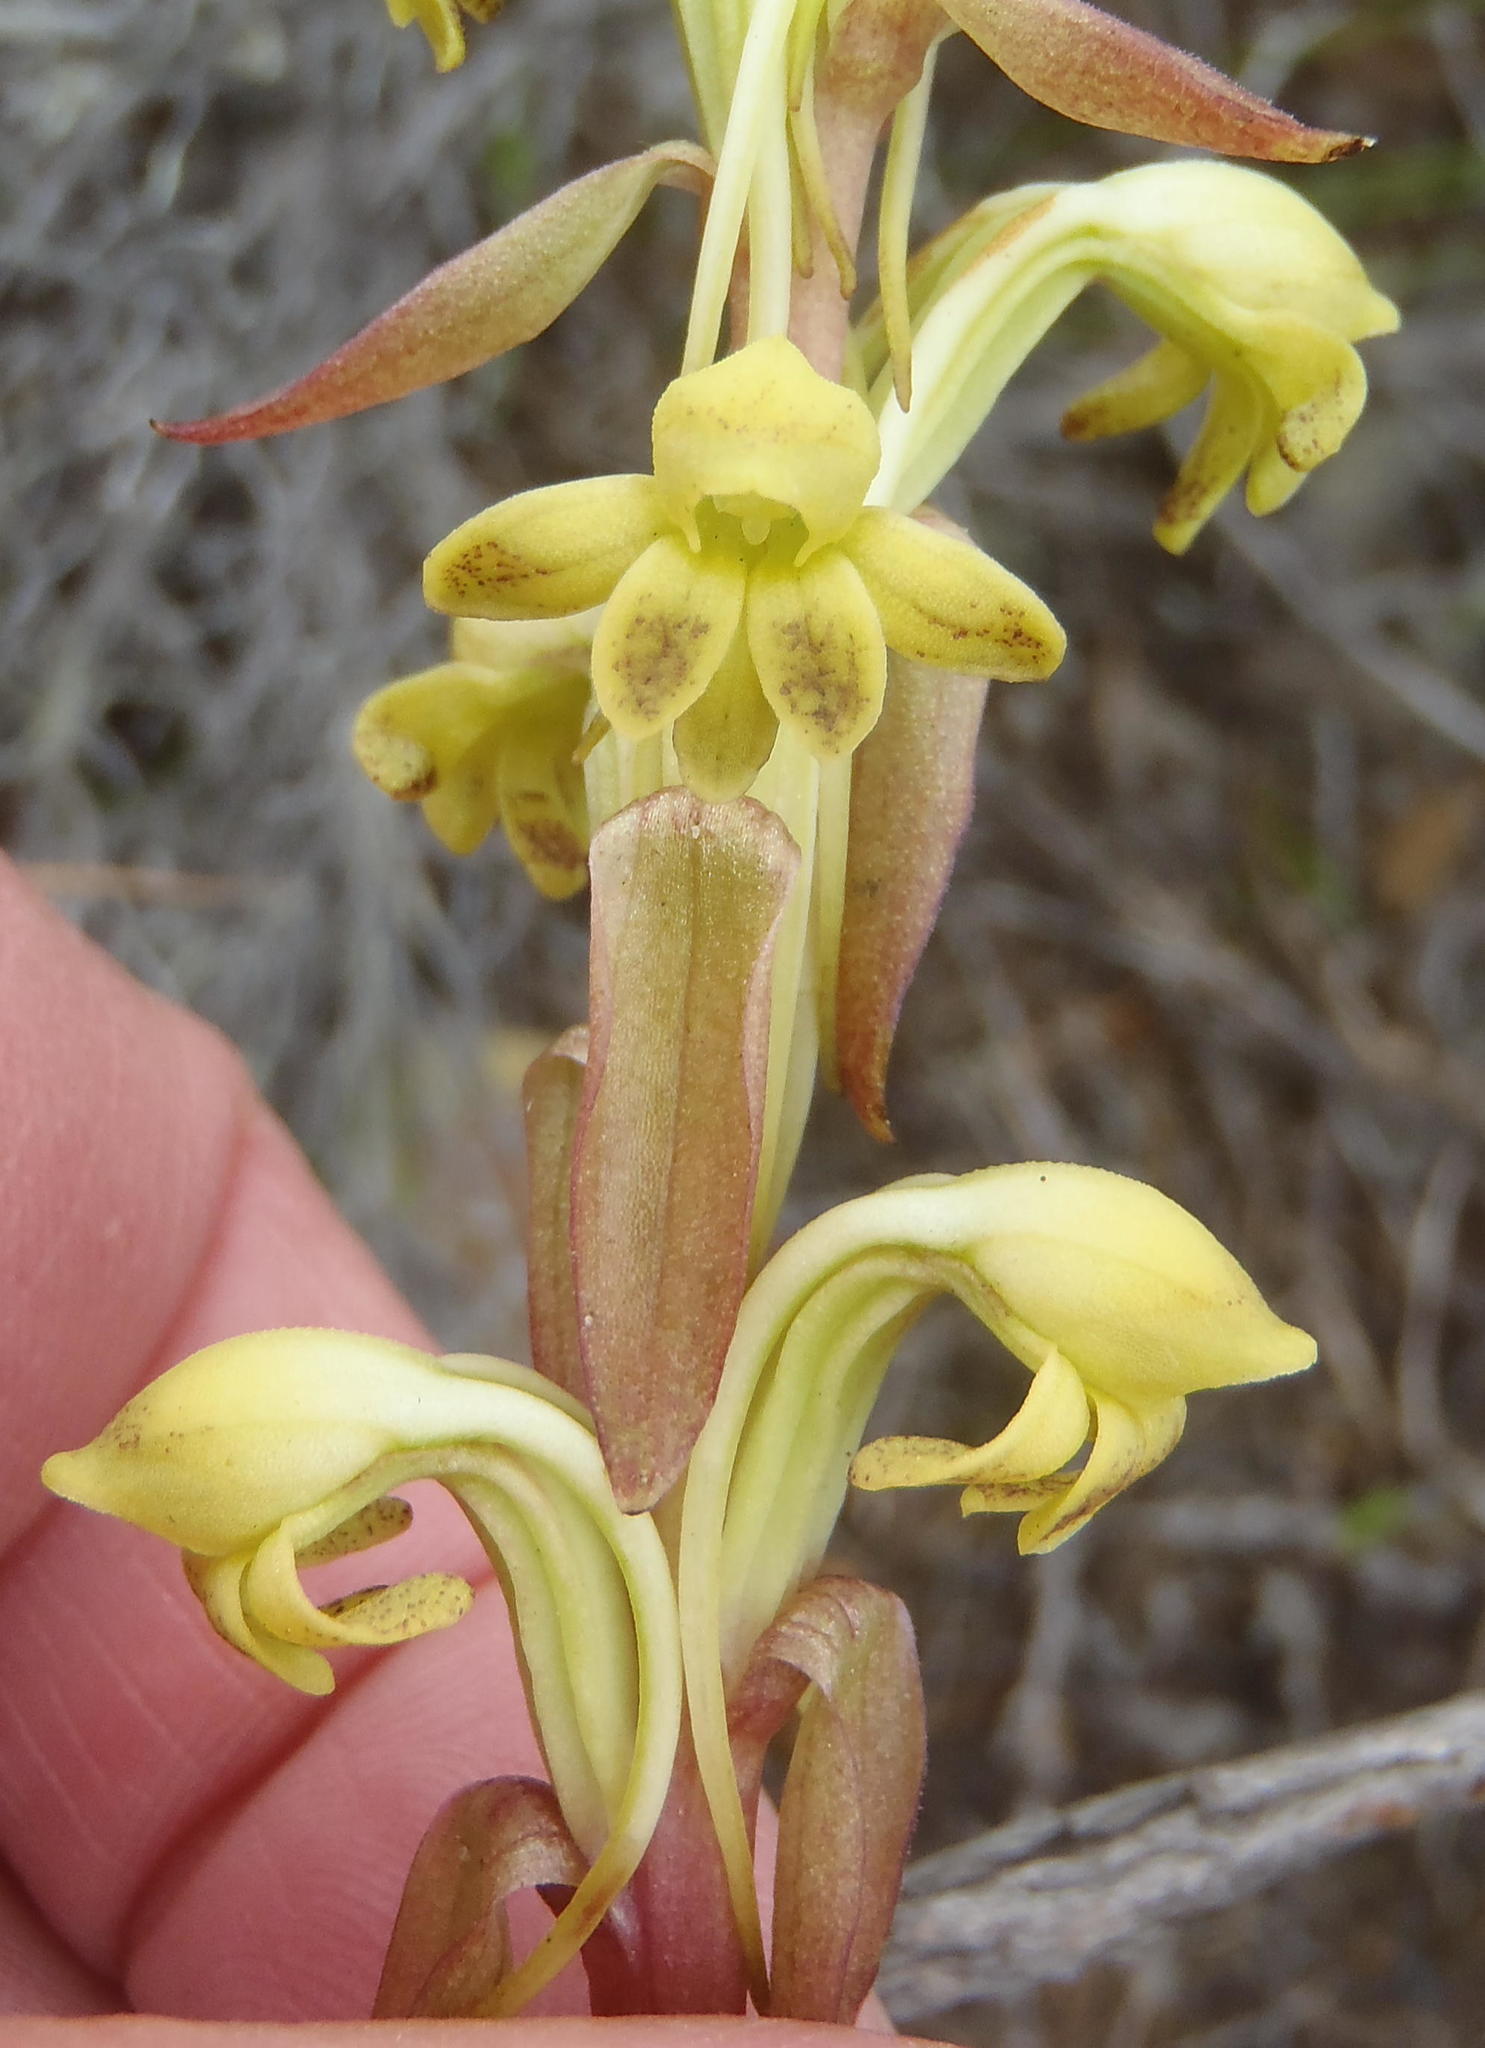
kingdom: Plantae
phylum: Tracheophyta
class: Liliopsida
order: Asparagales
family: Orchidaceae
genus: Satyrium
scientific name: Satyrium bicorne
